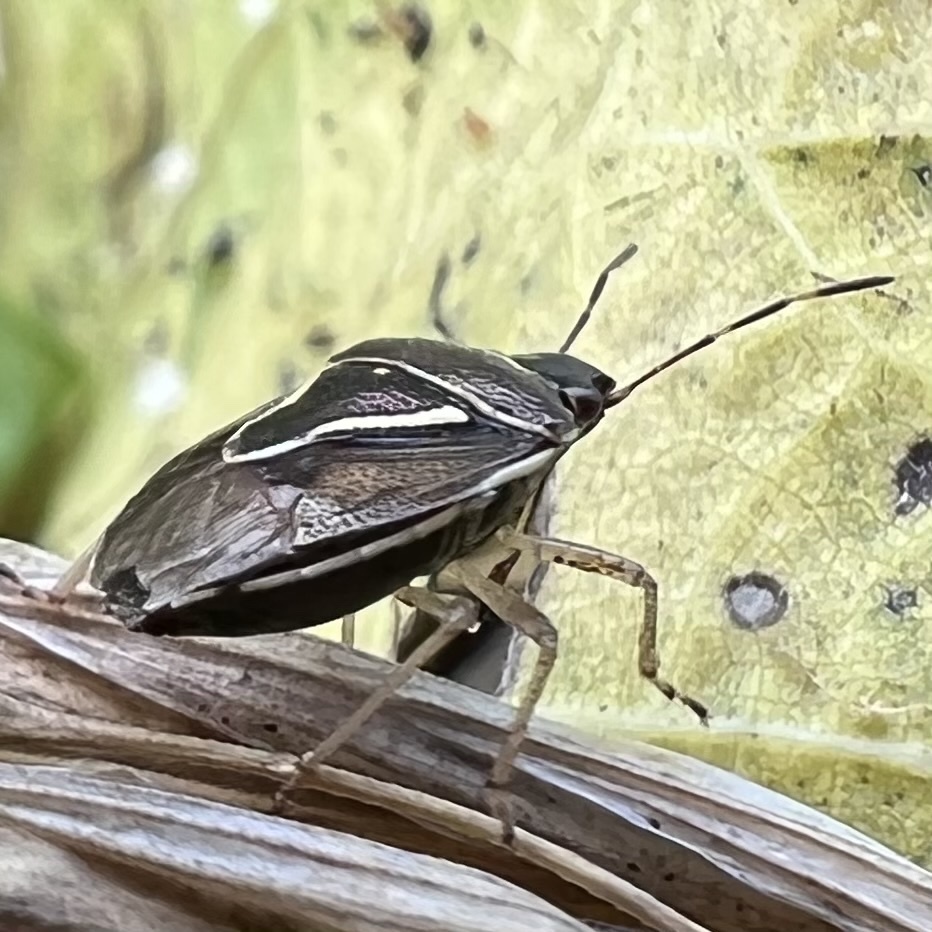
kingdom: Animalia
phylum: Arthropoda
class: Insecta
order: Hemiptera
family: Pentatomidae
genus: Mormidea
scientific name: Mormidea lugens
